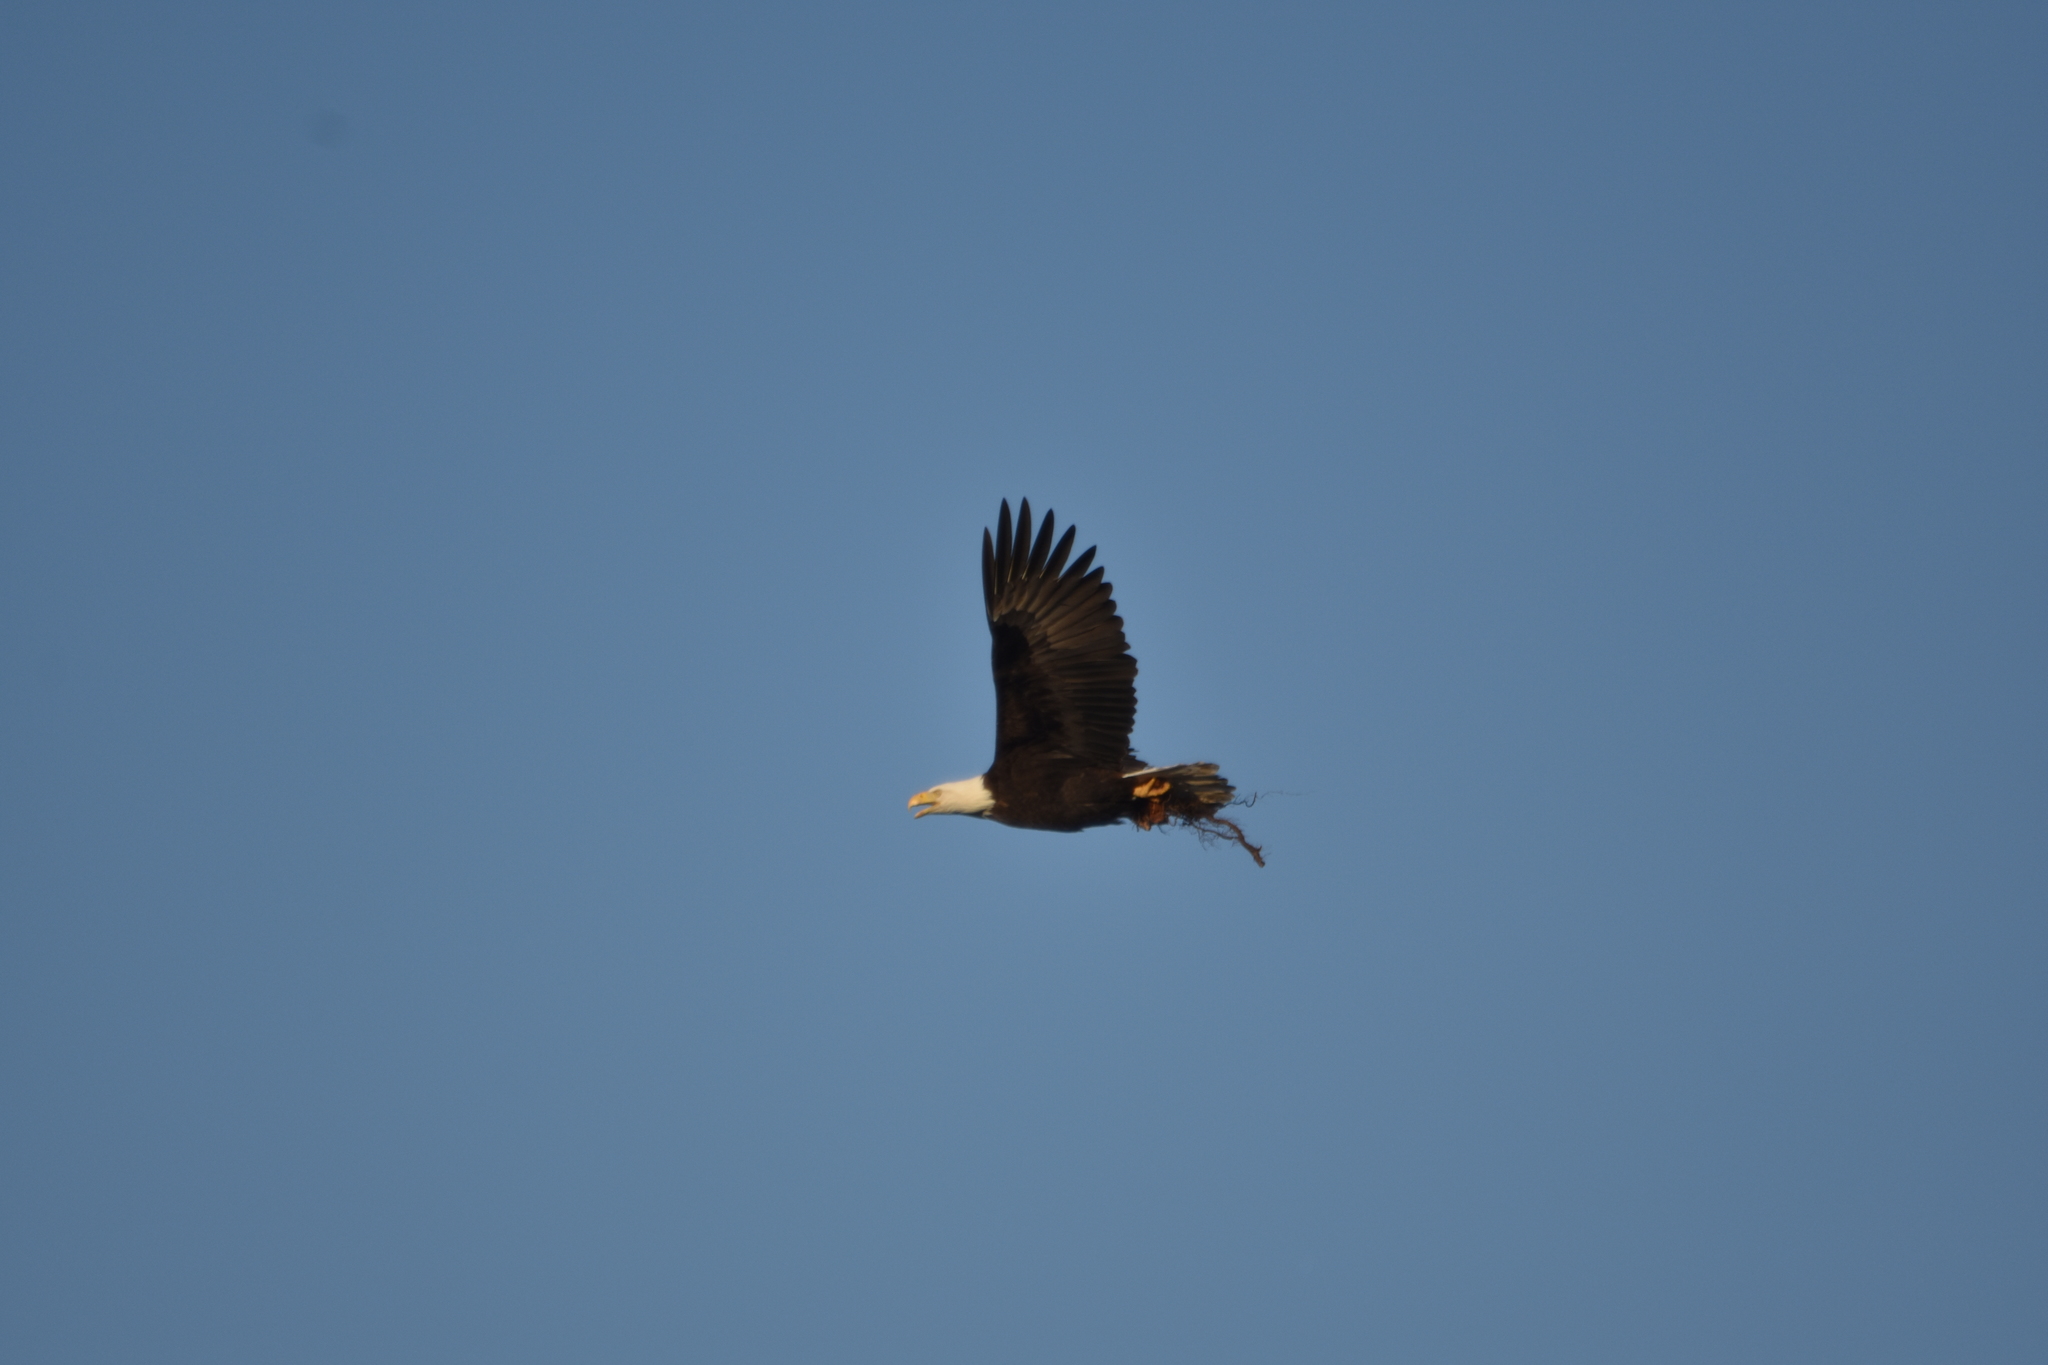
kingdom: Animalia
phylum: Chordata
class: Aves
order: Accipitriformes
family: Accipitridae
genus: Haliaeetus
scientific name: Haliaeetus leucocephalus
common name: Bald eagle
